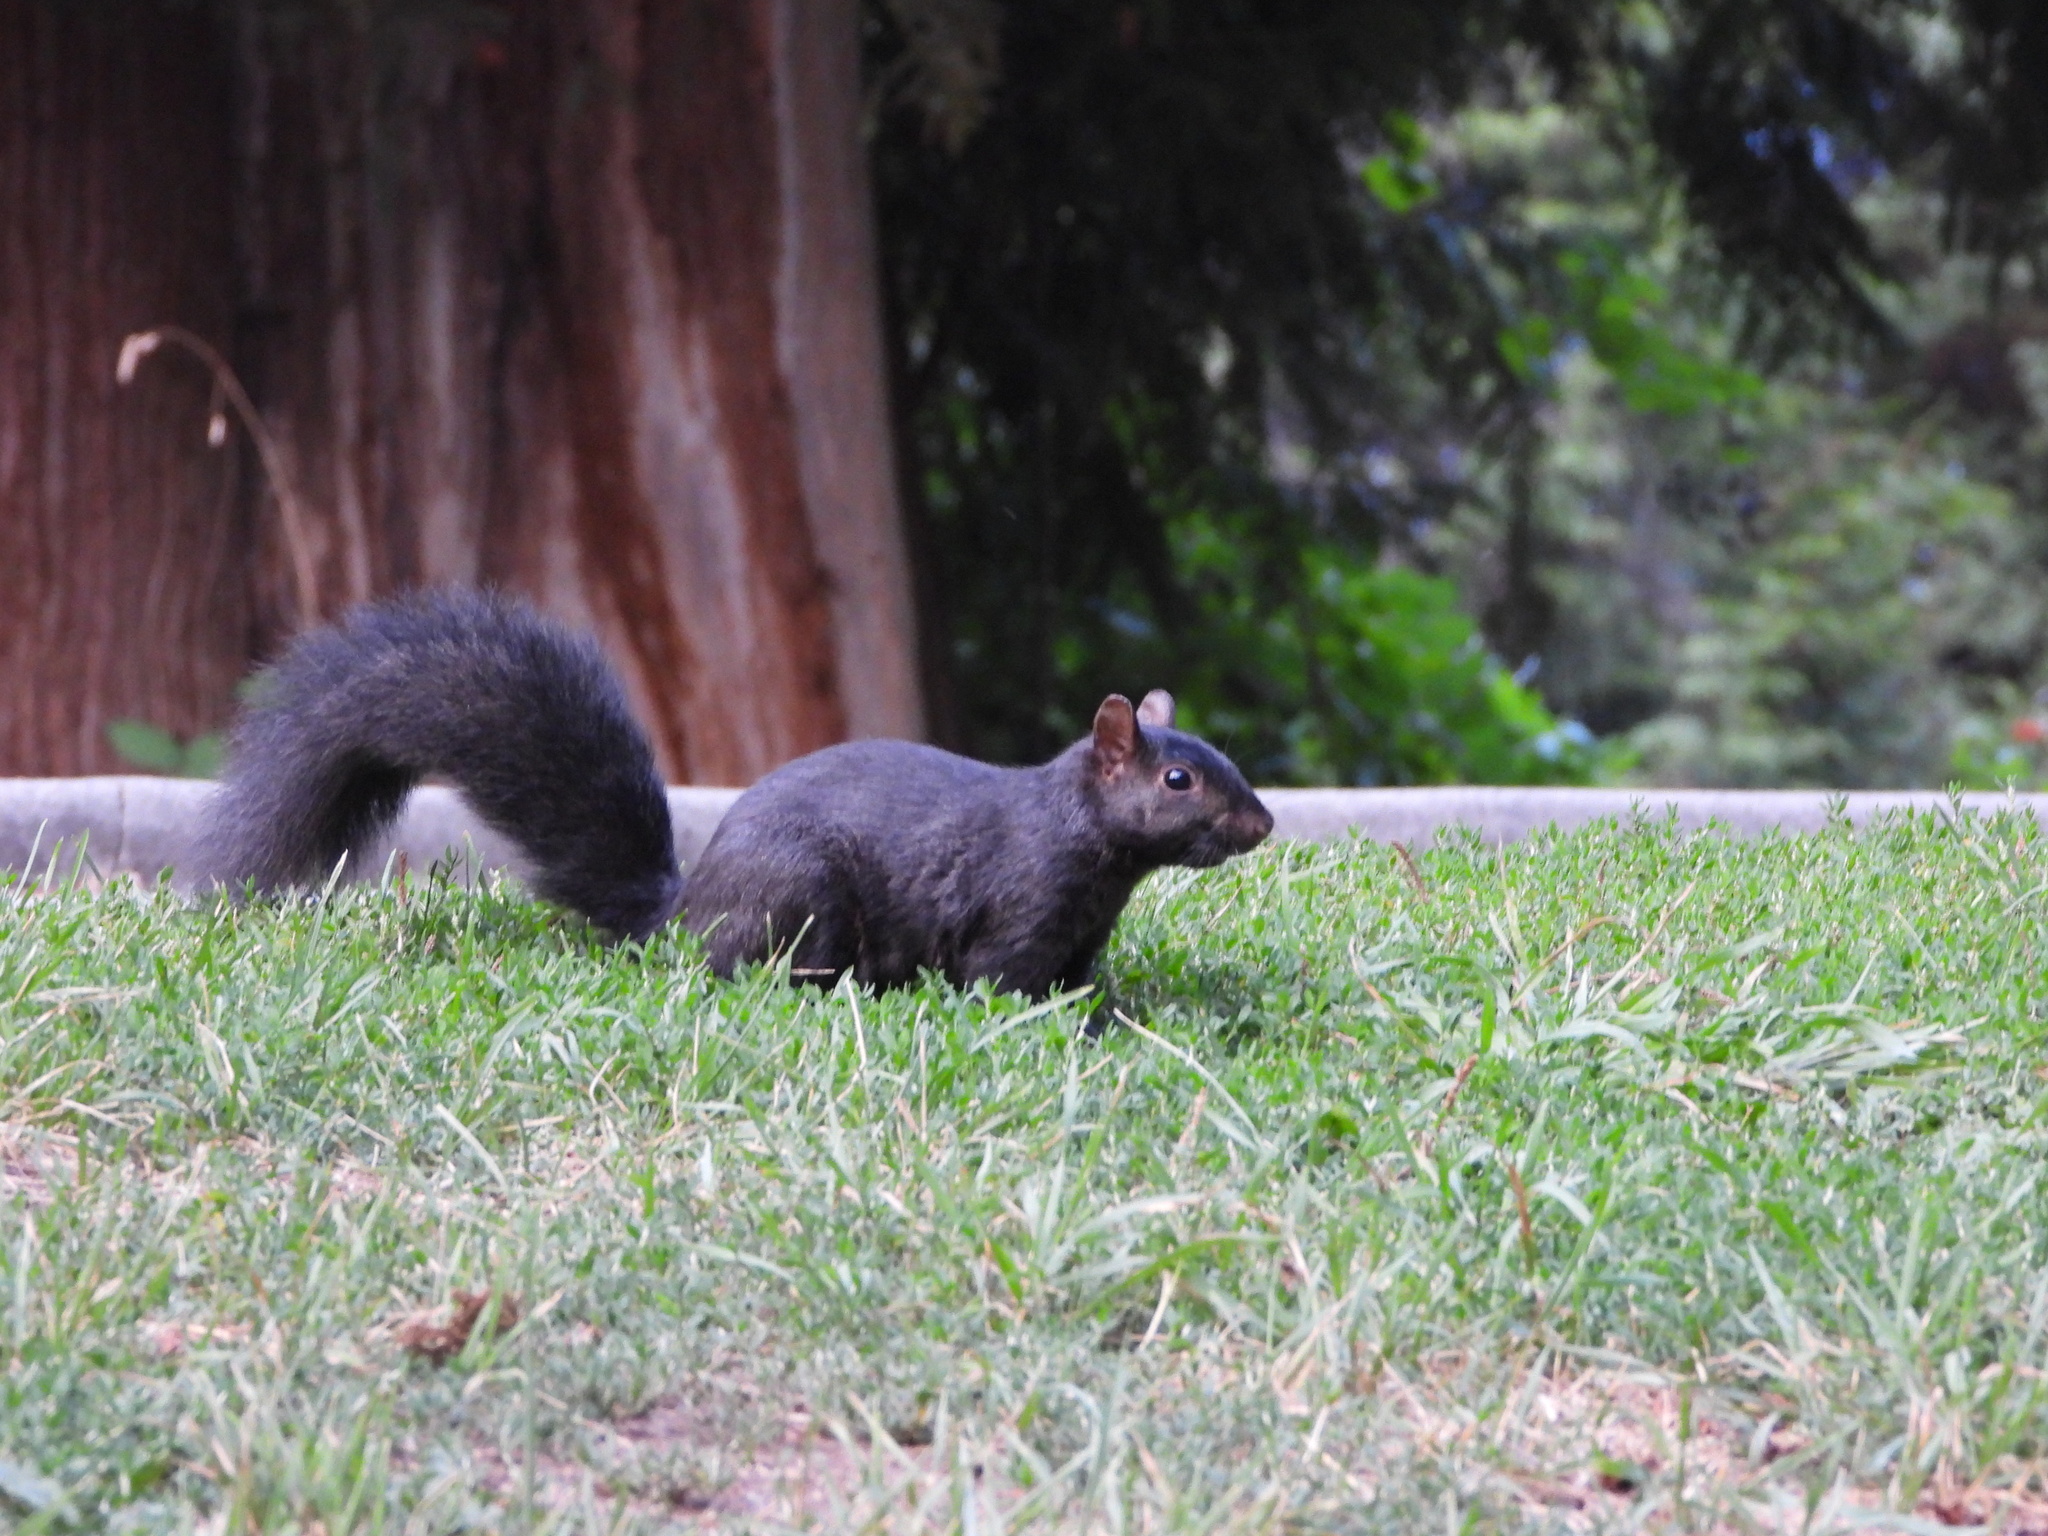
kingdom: Animalia
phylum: Chordata
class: Mammalia
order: Rodentia
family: Sciuridae
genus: Sciurus
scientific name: Sciurus carolinensis
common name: Eastern gray squirrel
